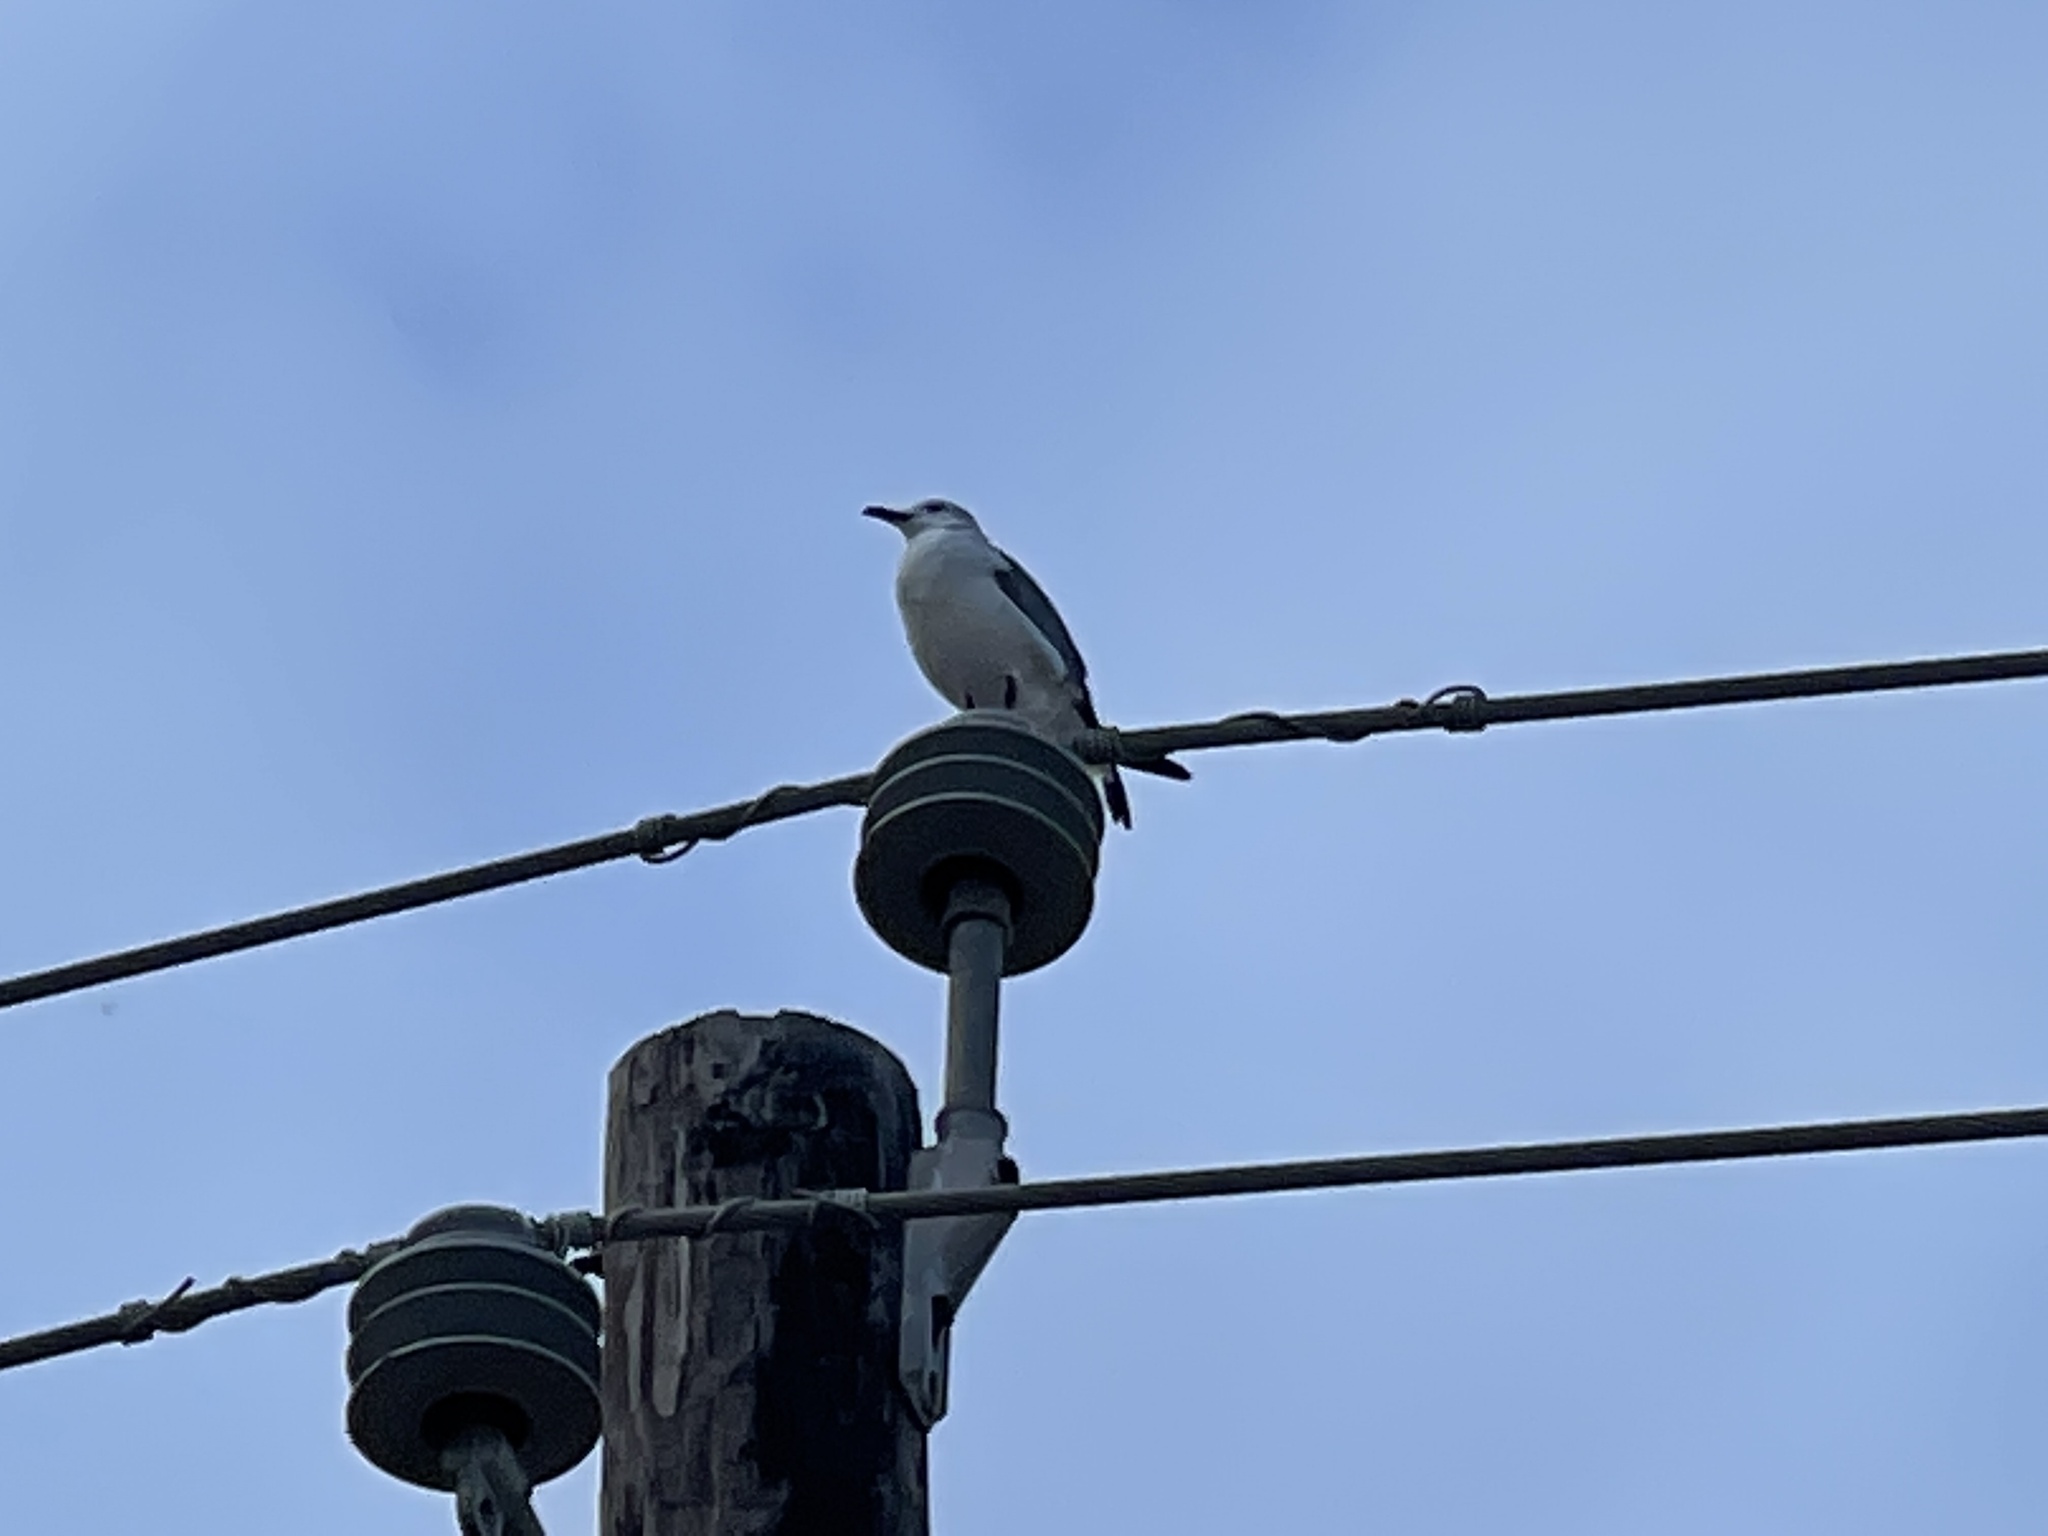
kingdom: Animalia
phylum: Chordata
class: Aves
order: Charadriiformes
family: Laridae
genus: Leucophaeus
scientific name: Leucophaeus atricilla
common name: Laughing gull
